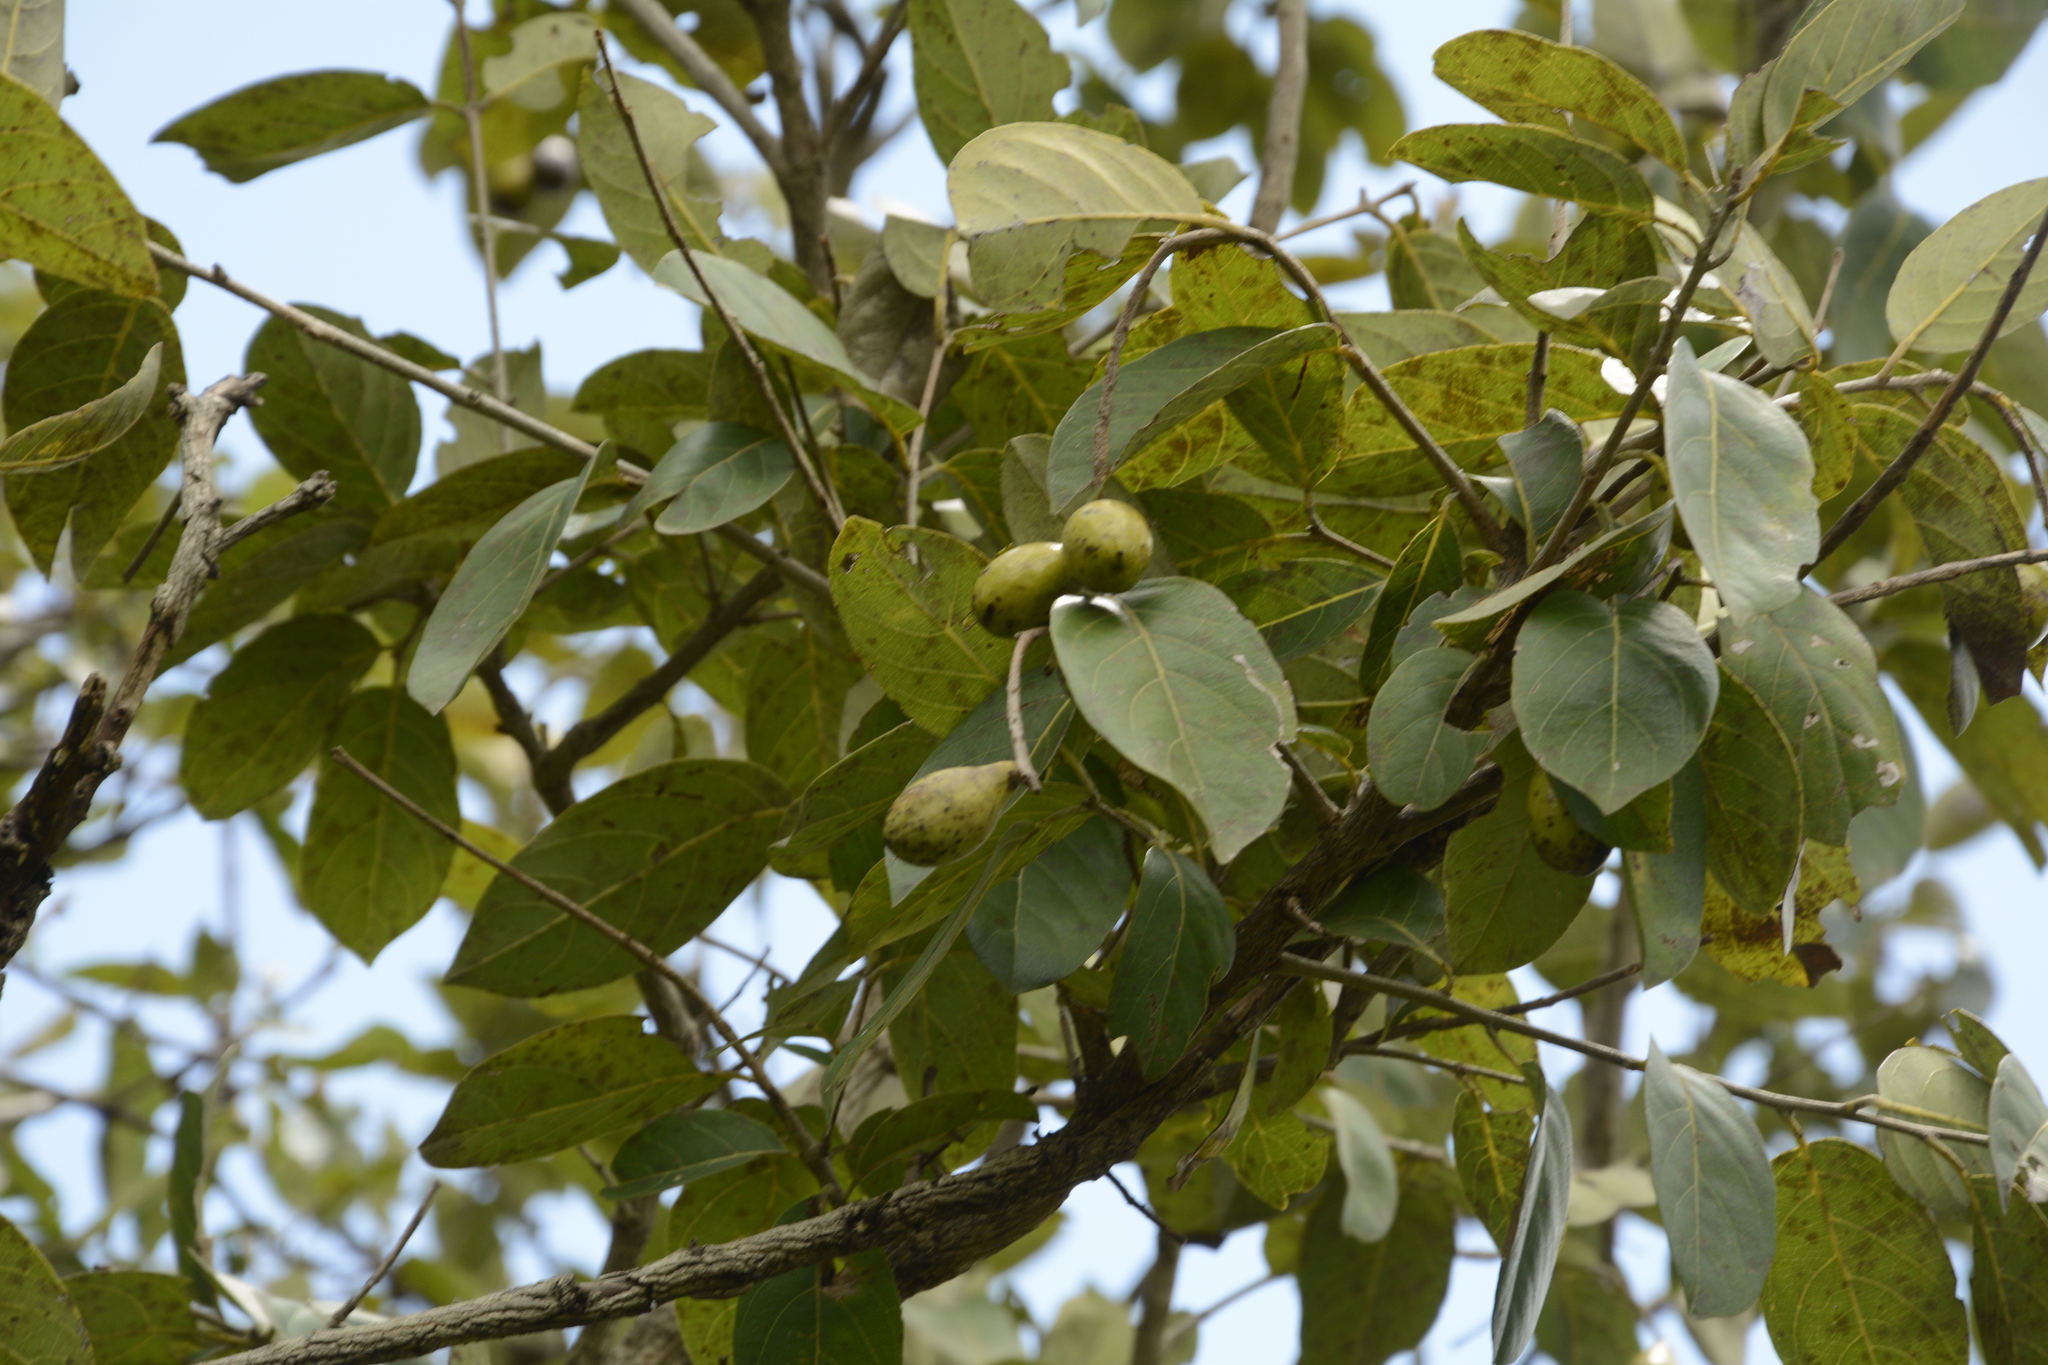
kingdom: Plantae
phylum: Tracheophyta
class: Magnoliopsida
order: Myrtales
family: Combretaceae
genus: Terminalia
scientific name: Terminalia chebula
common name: Myrobalan
